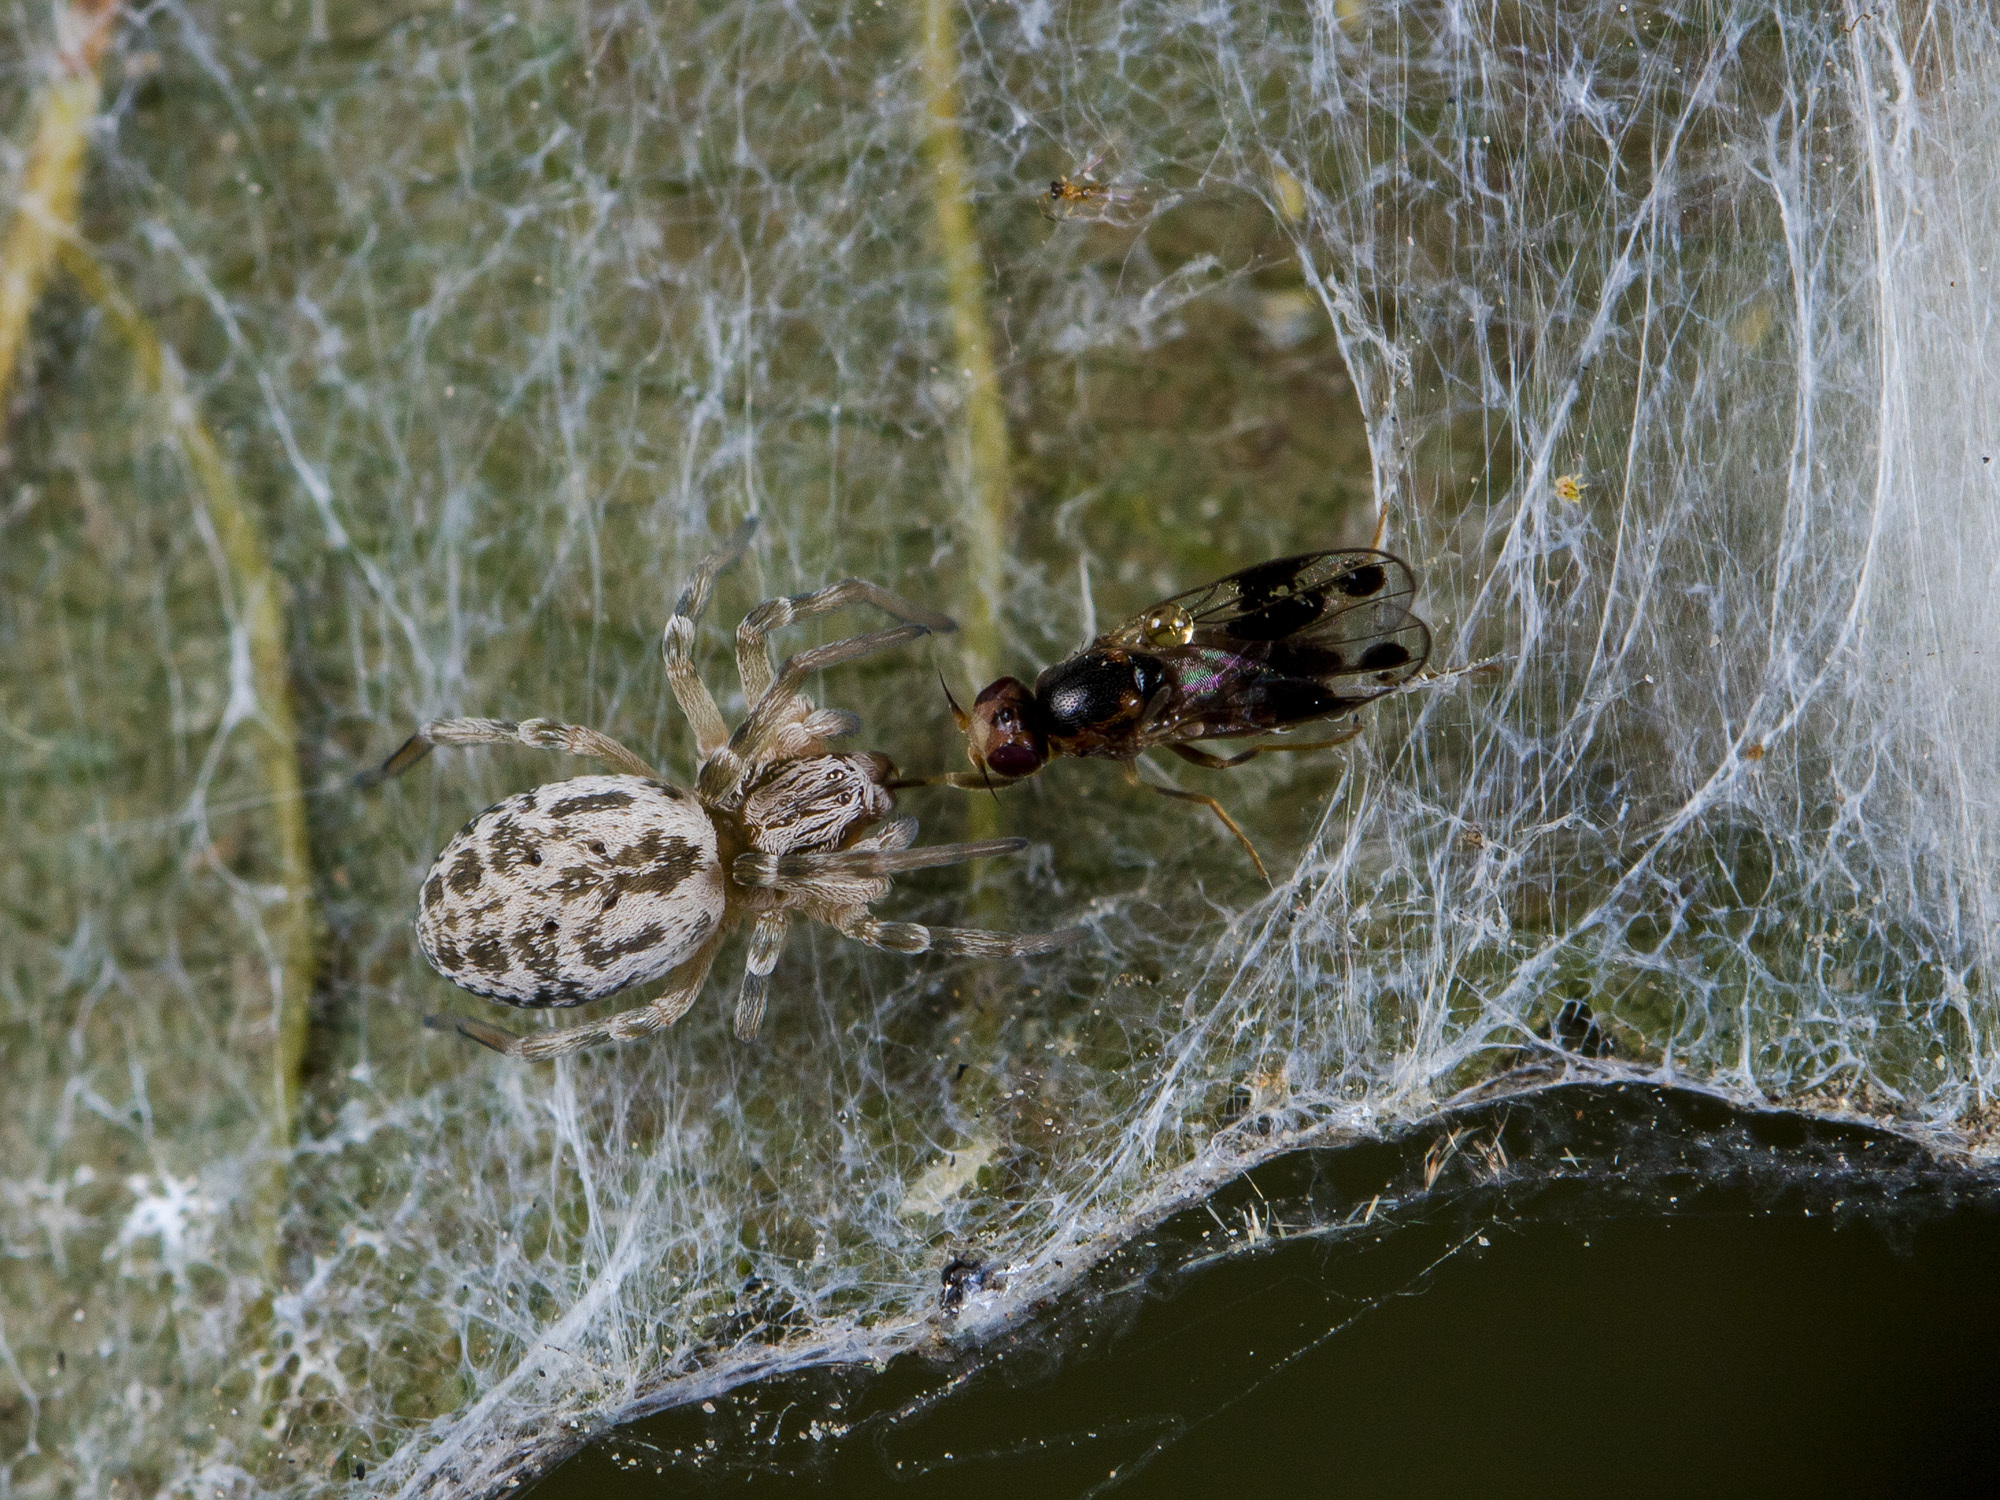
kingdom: Animalia
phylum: Arthropoda
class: Arachnida
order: Araneae
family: Dictynidae
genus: Dictynomorpha
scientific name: Dictynomorpha strandi
